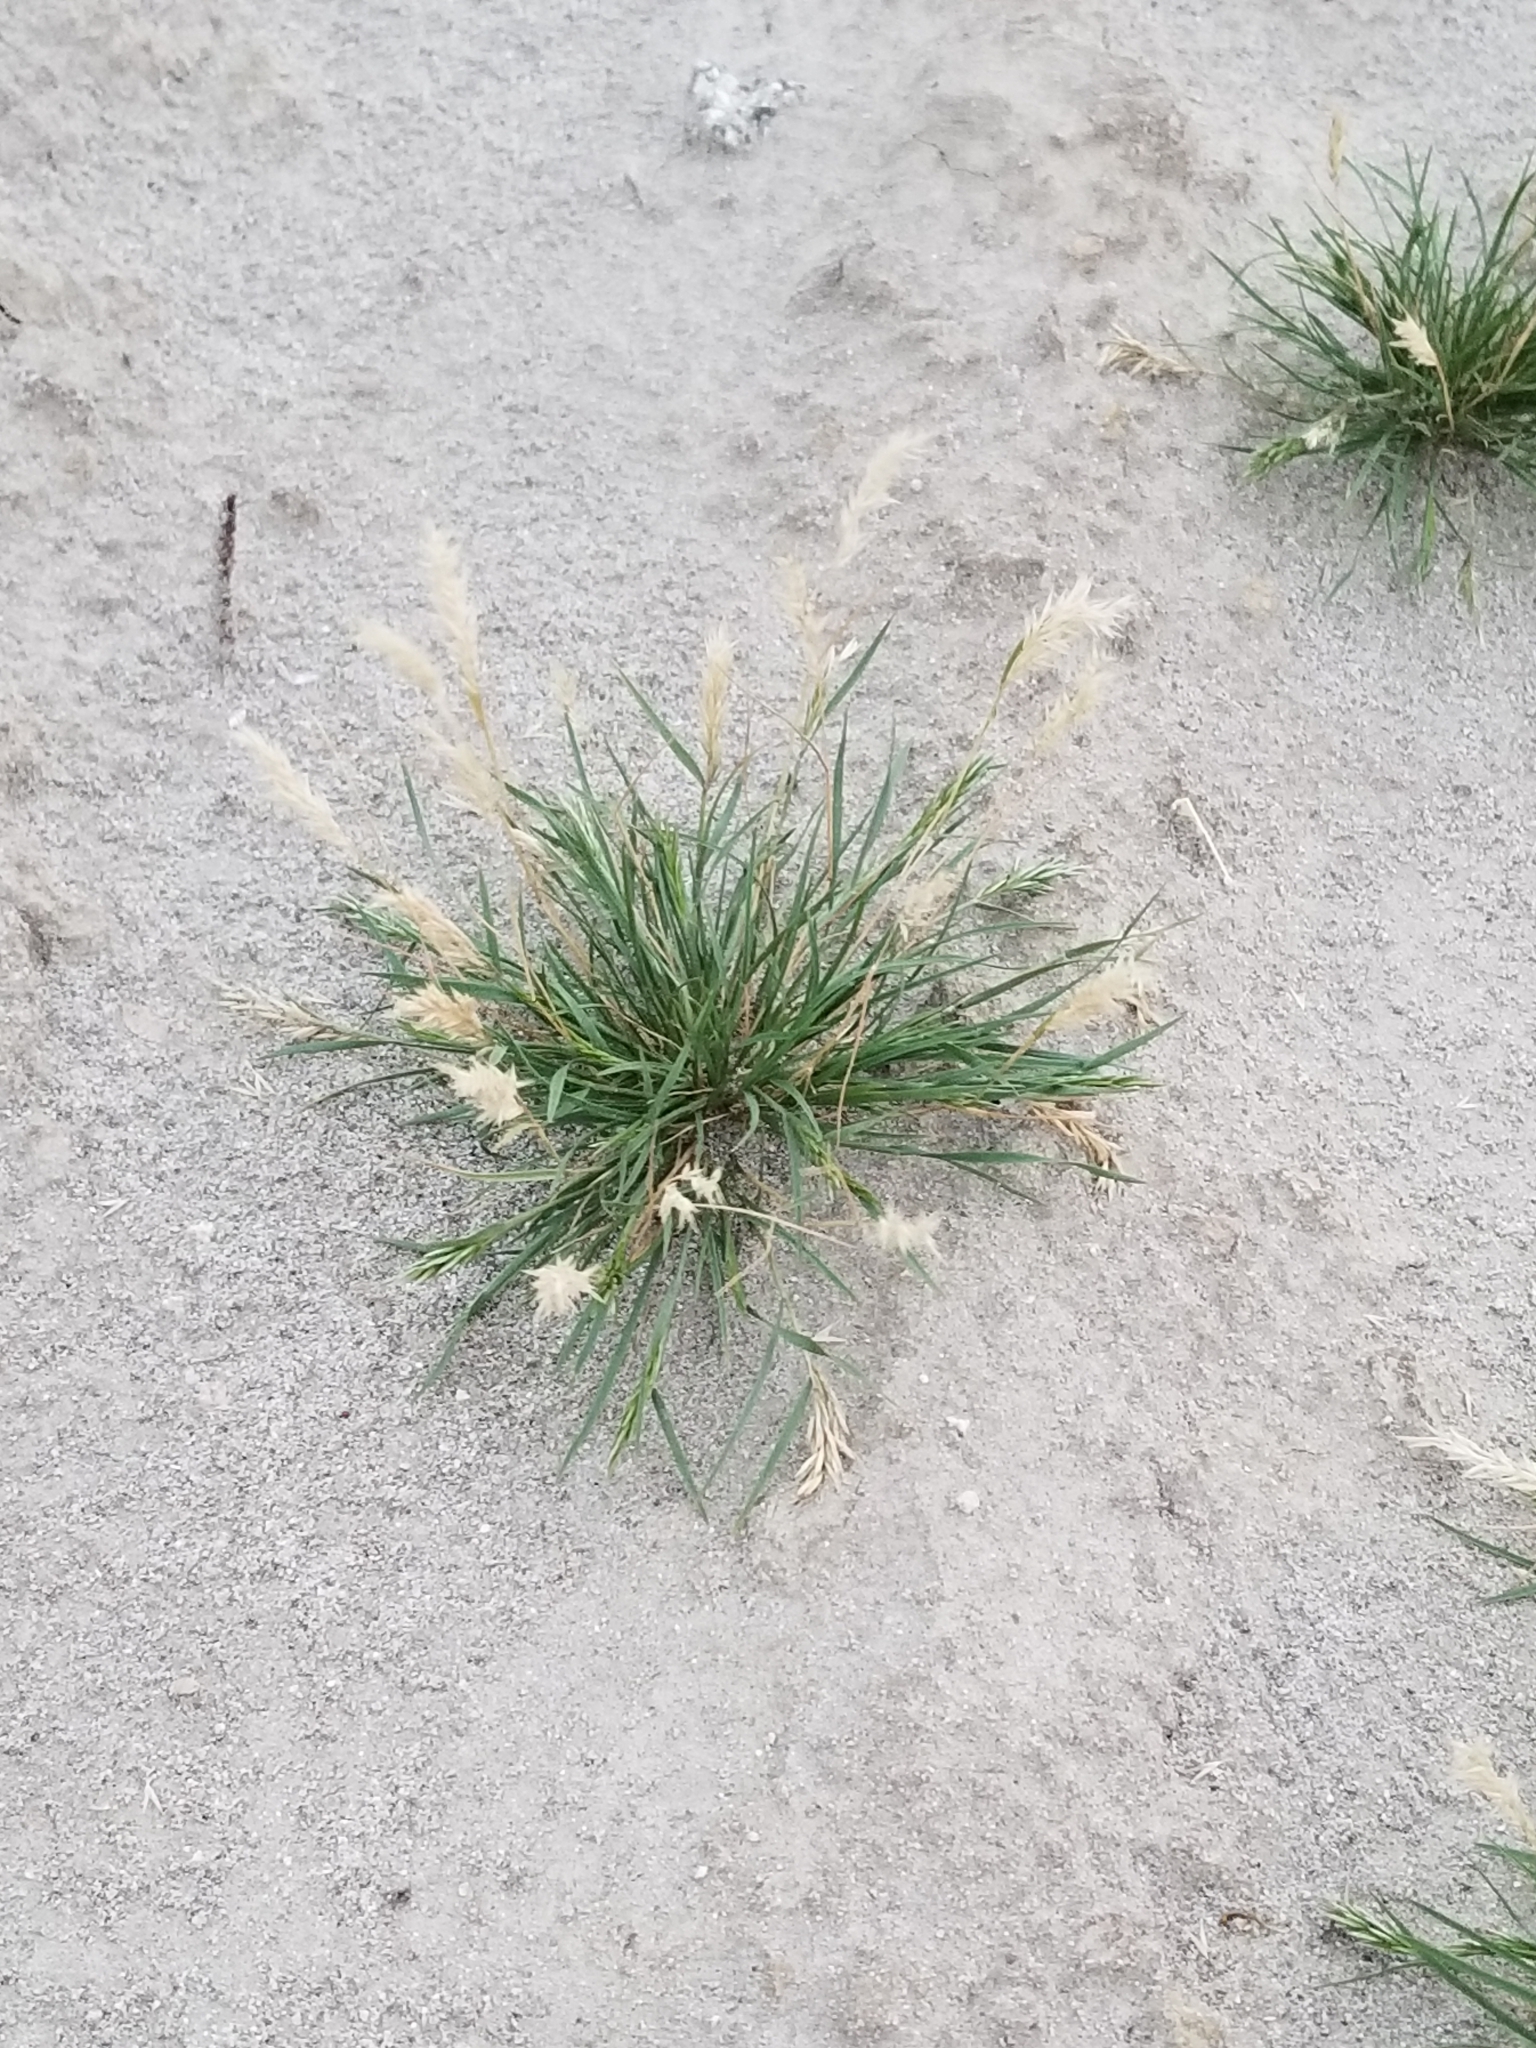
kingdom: Plantae
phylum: Tracheophyta
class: Liliopsida
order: Poales
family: Poaceae
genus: Schismus
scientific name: Schismus barbatus
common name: Kelch-grass
